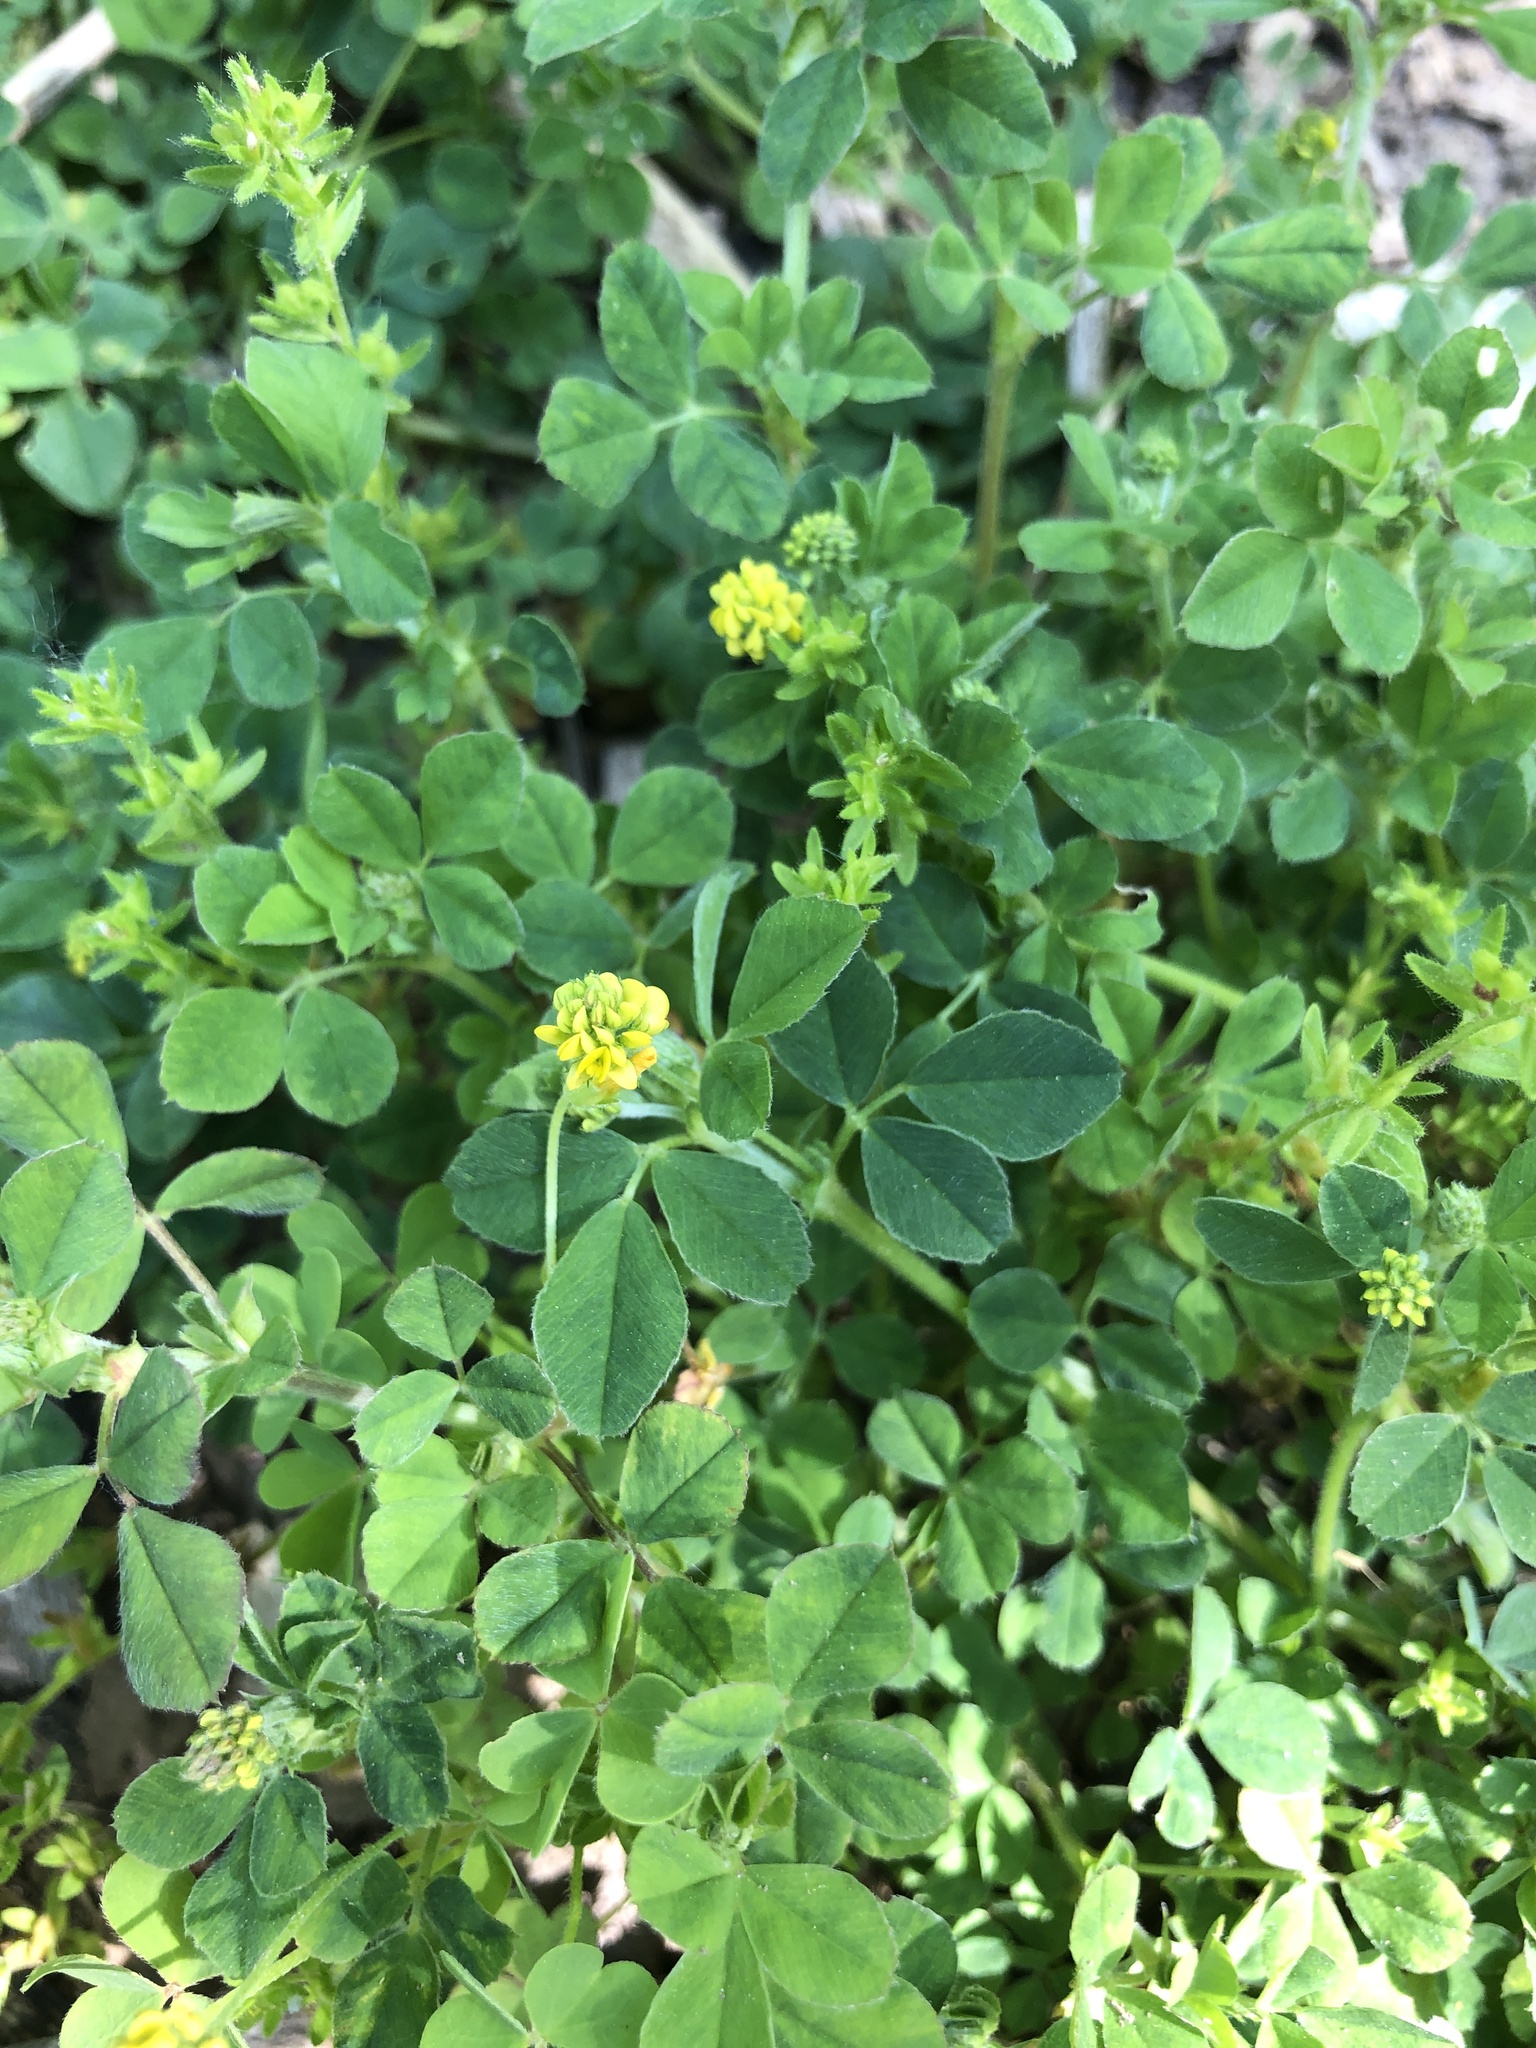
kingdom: Plantae
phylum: Tracheophyta
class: Magnoliopsida
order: Fabales
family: Fabaceae
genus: Medicago
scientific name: Medicago lupulina
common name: Black medick
